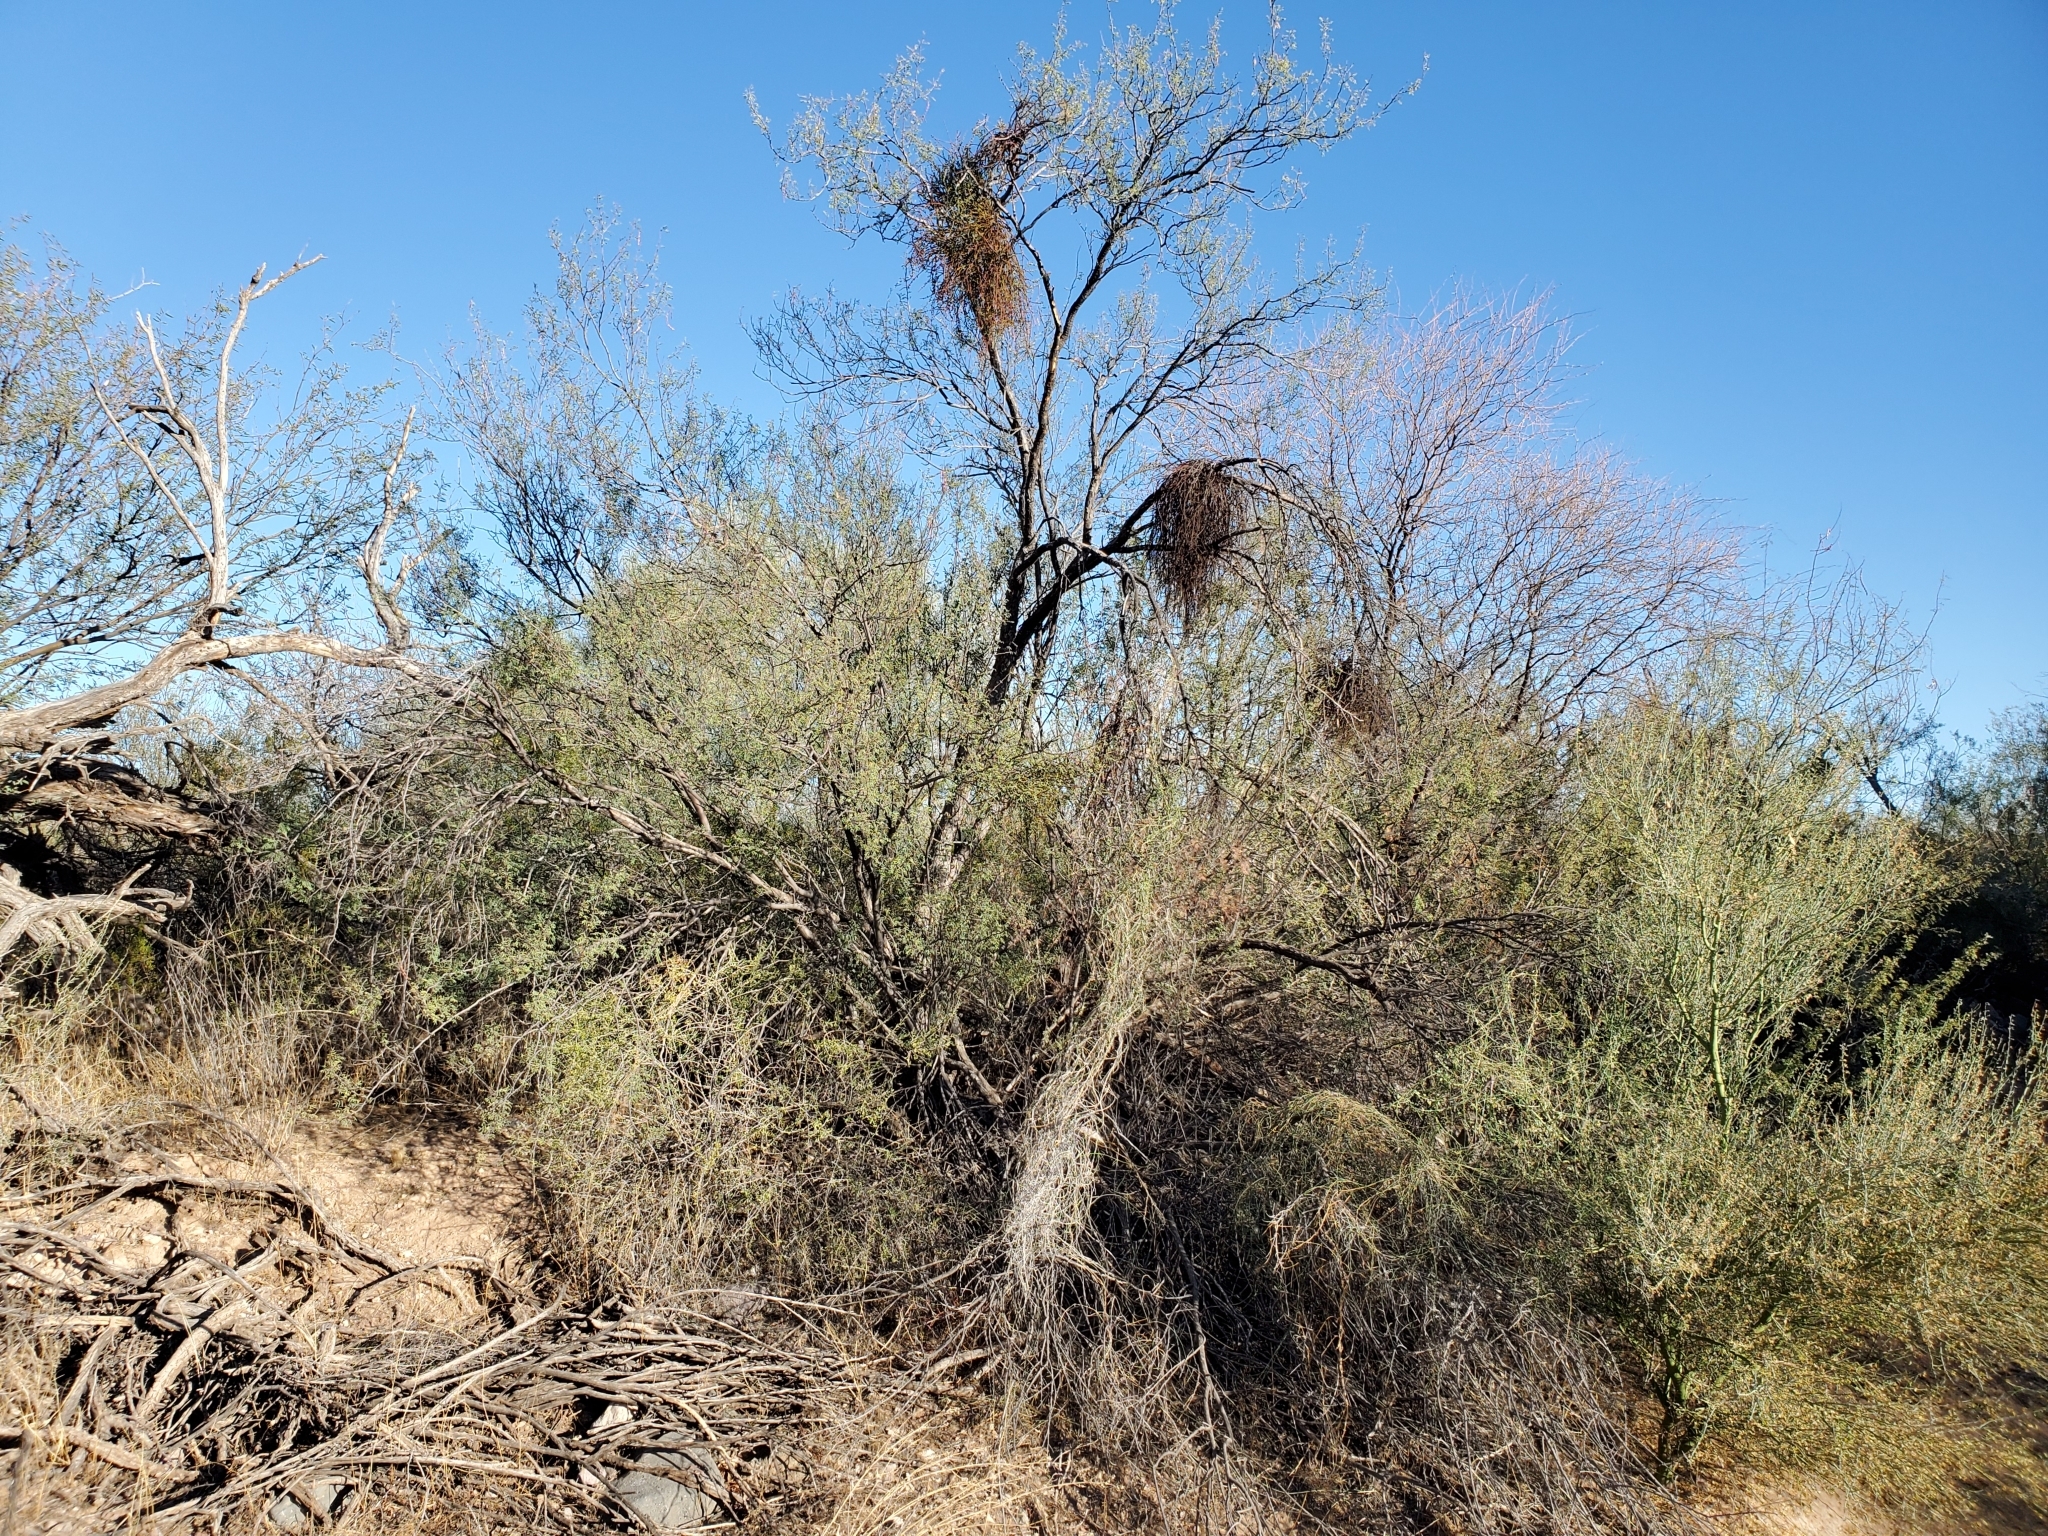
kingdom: Plantae
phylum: Tracheophyta
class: Magnoliopsida
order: Fabales
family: Fabaceae
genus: Senegalia
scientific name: Senegalia greggii
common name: Texas-mimosa
